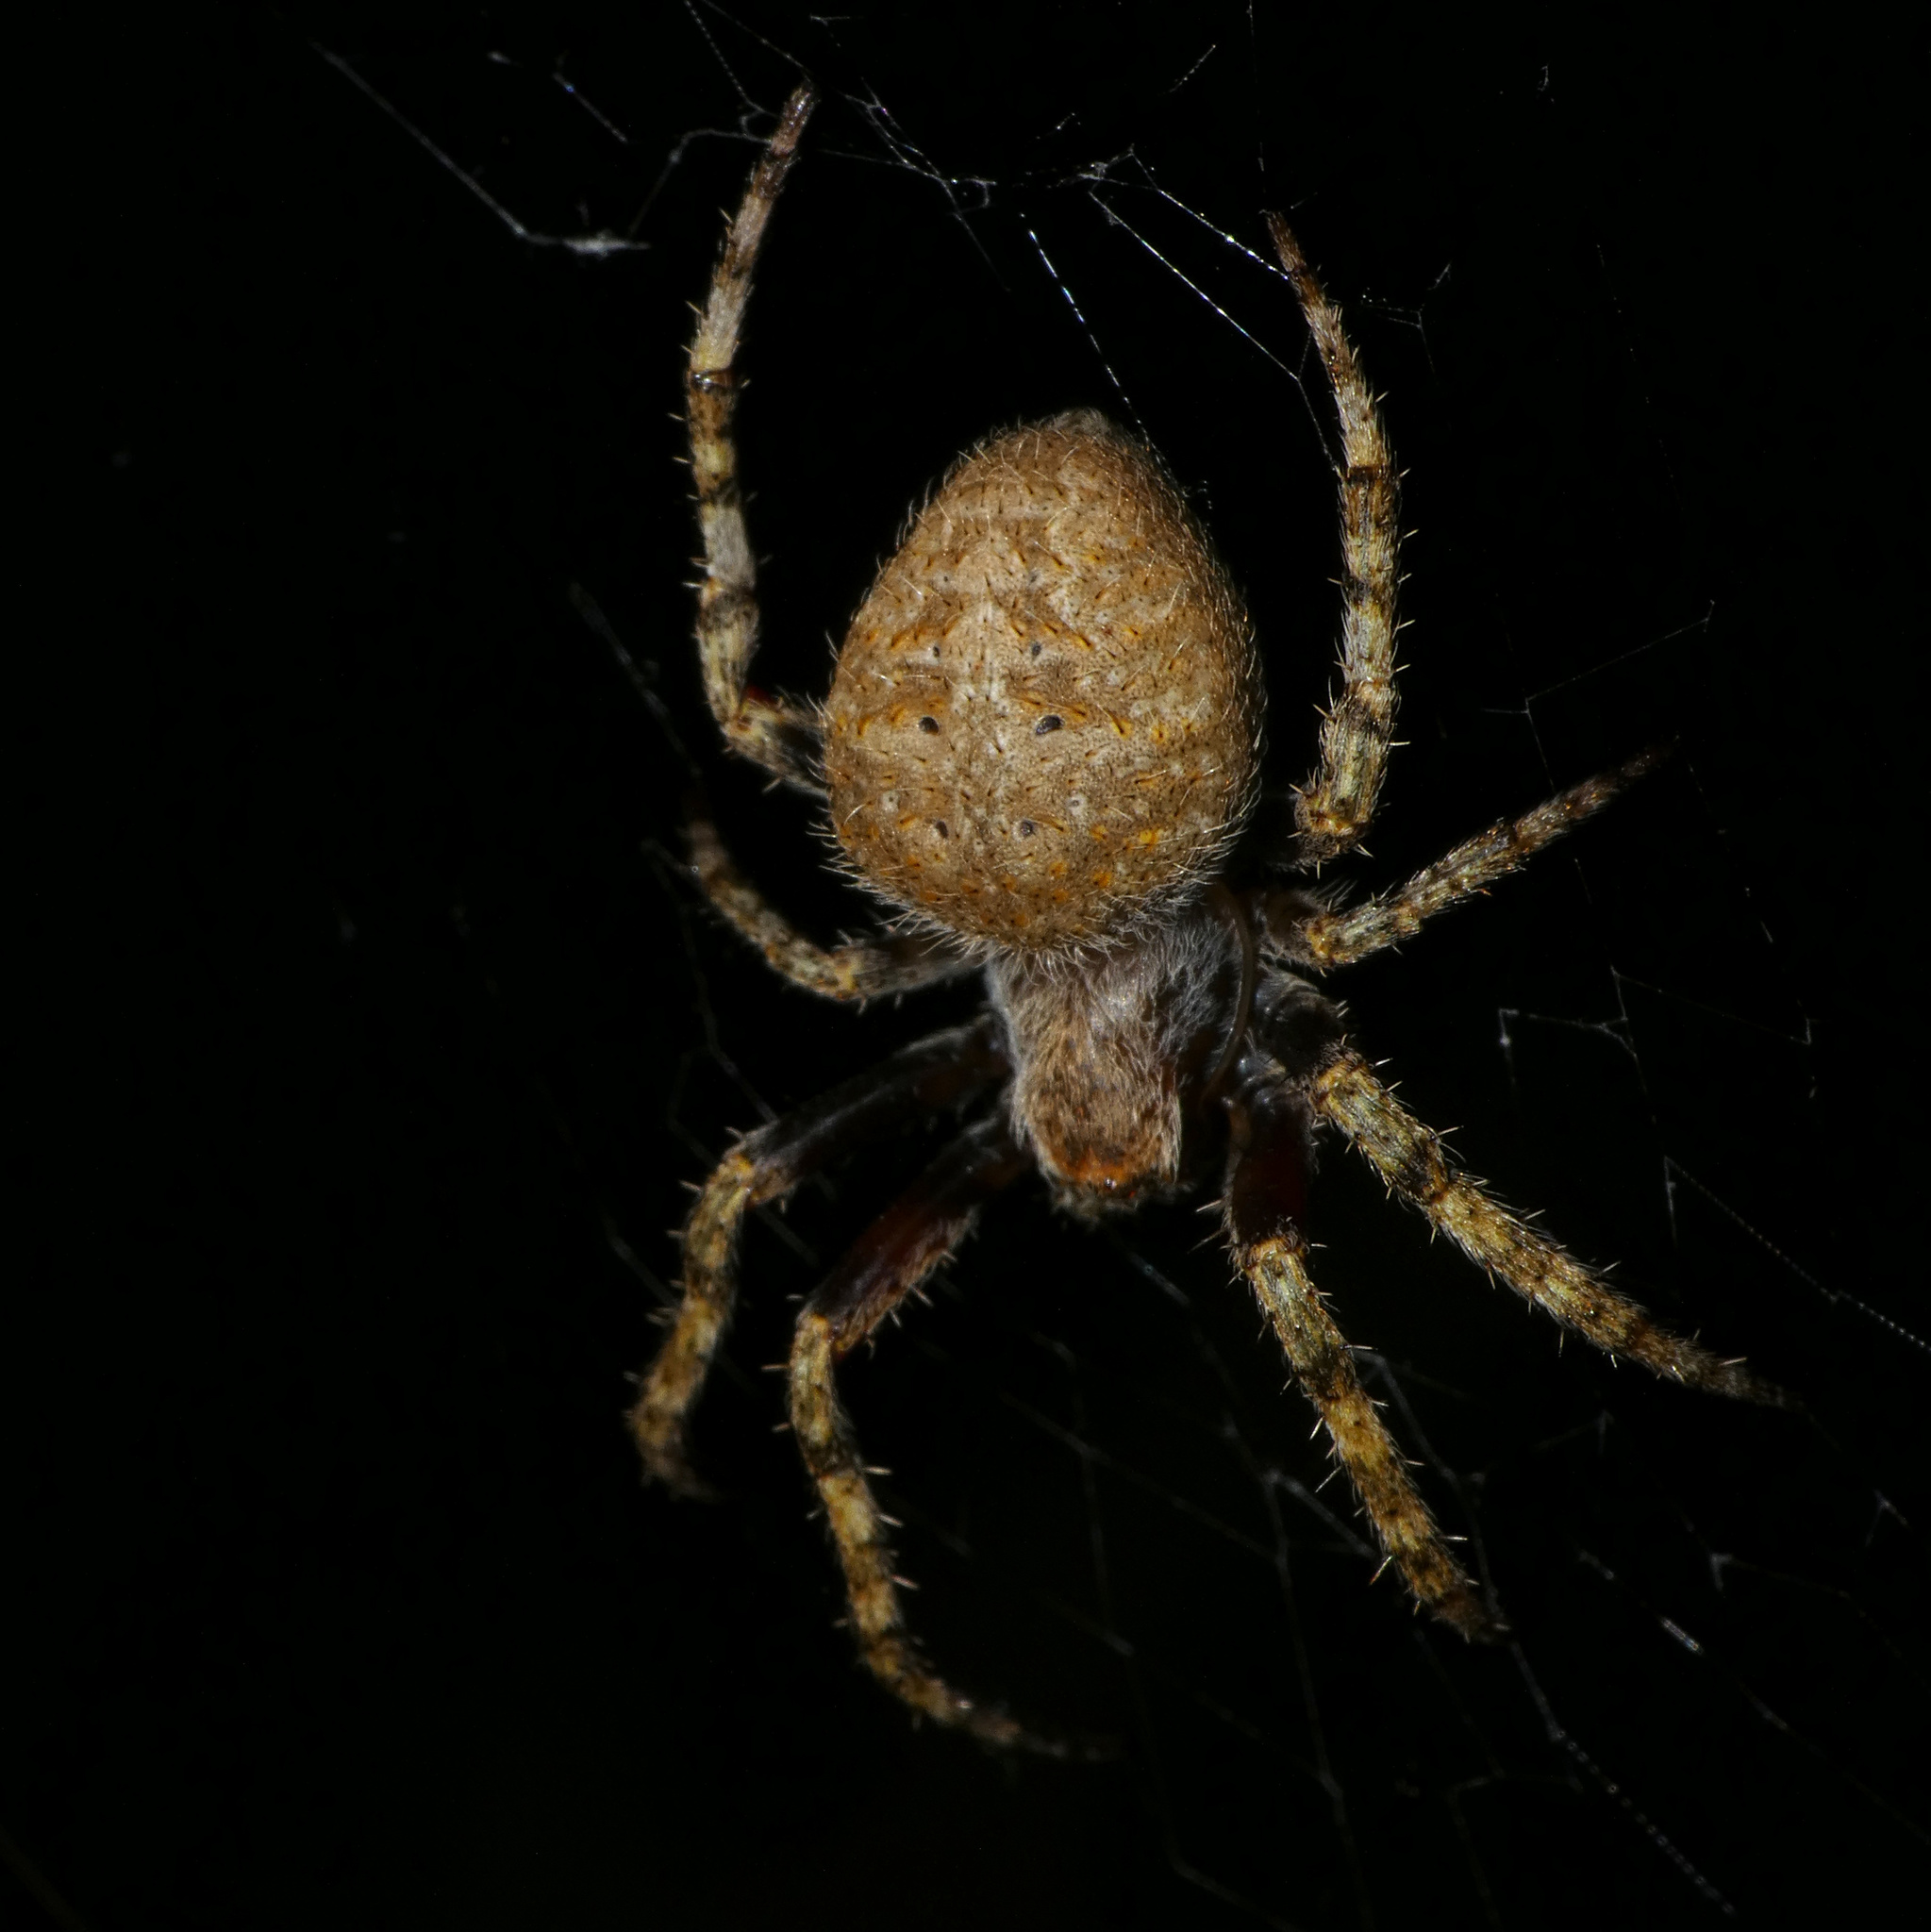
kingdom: Animalia
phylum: Arthropoda
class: Arachnida
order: Araneae
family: Araneidae
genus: Neoscona
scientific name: Neoscona triangula
